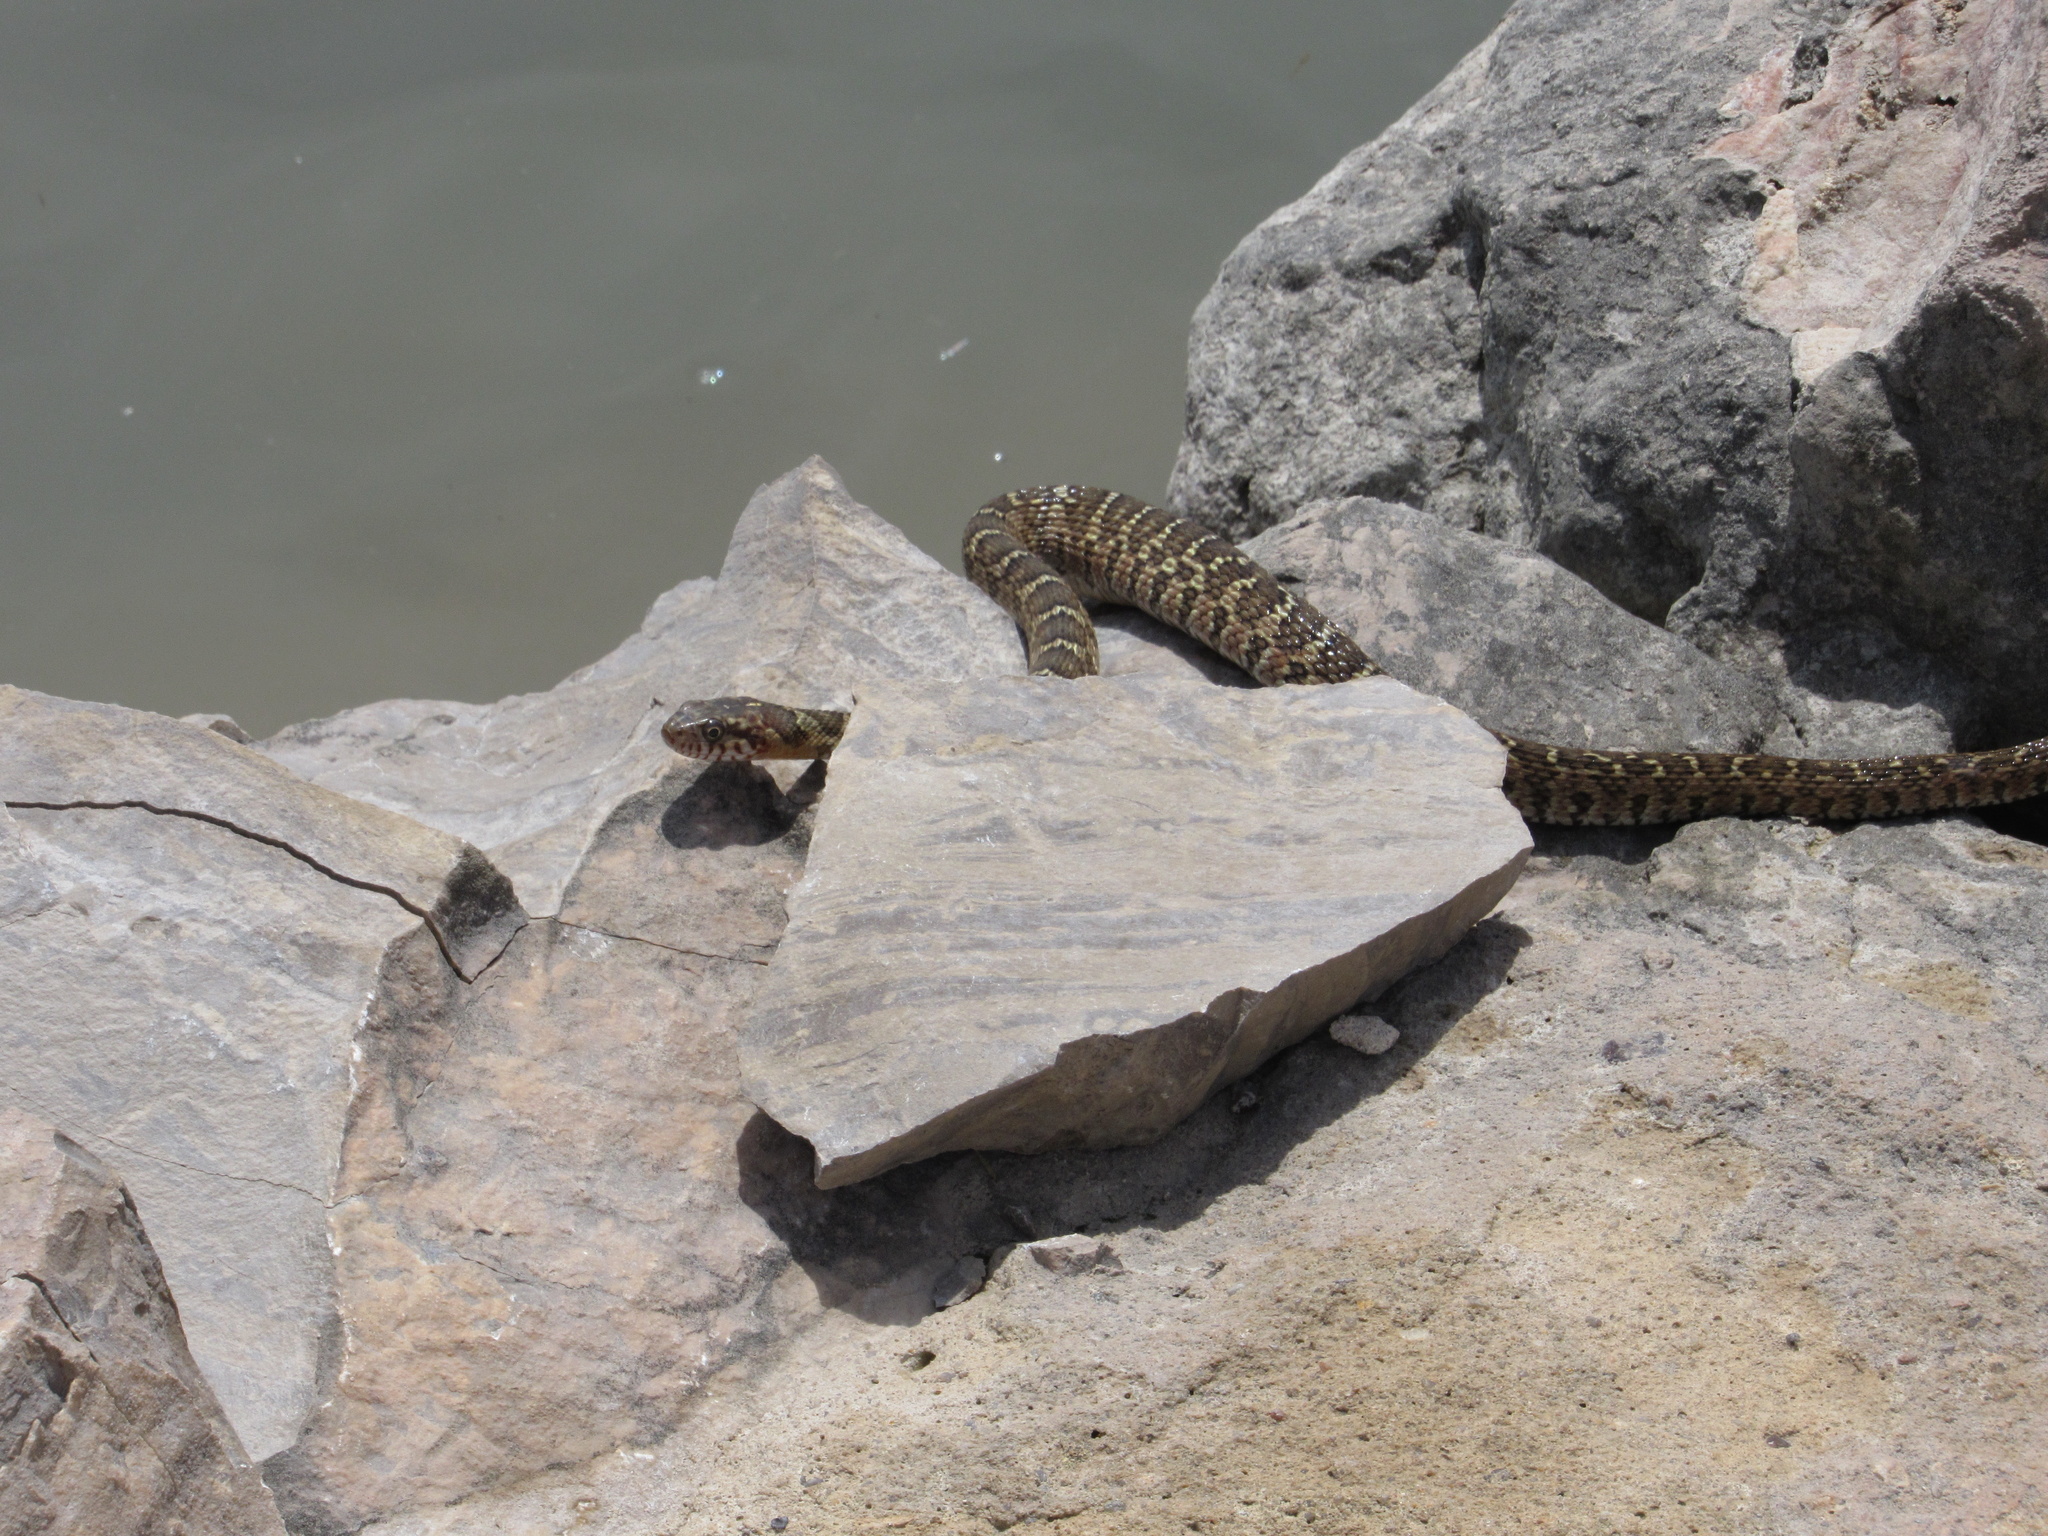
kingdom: Animalia
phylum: Chordata
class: Squamata
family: Colubridae
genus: Nerodia
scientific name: Nerodia erythrogaster
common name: Plainbelly water snake
